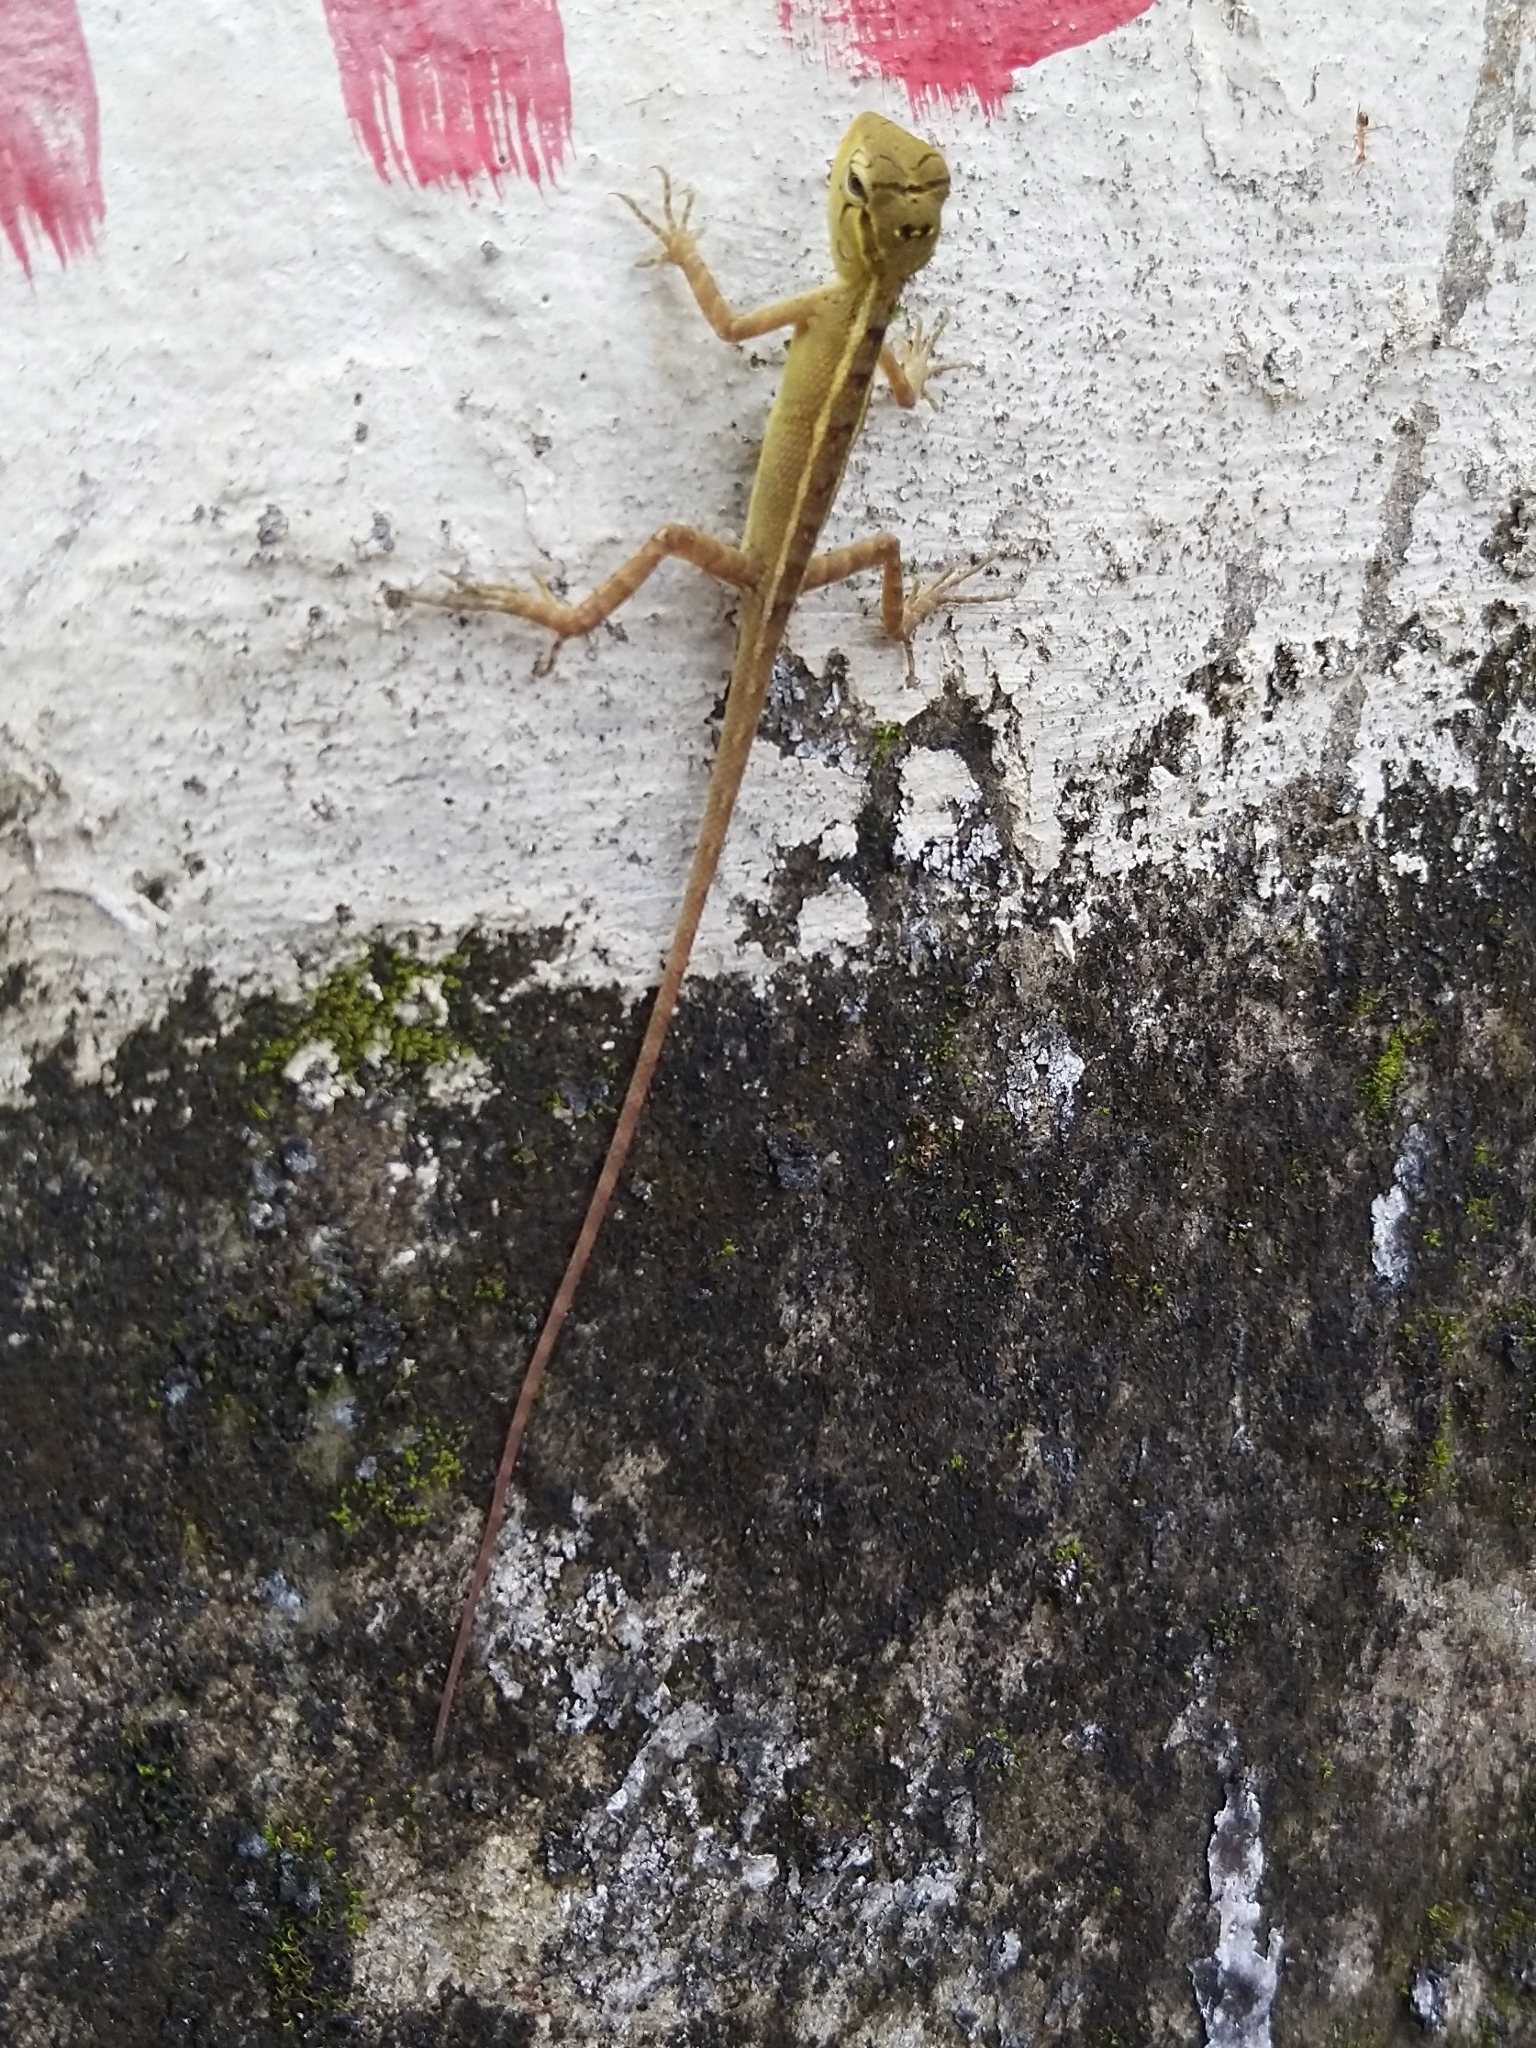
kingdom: Animalia
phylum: Chordata
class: Squamata
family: Agamidae
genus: Calotes
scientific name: Calotes versicolor
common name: Oriental garden lizard
